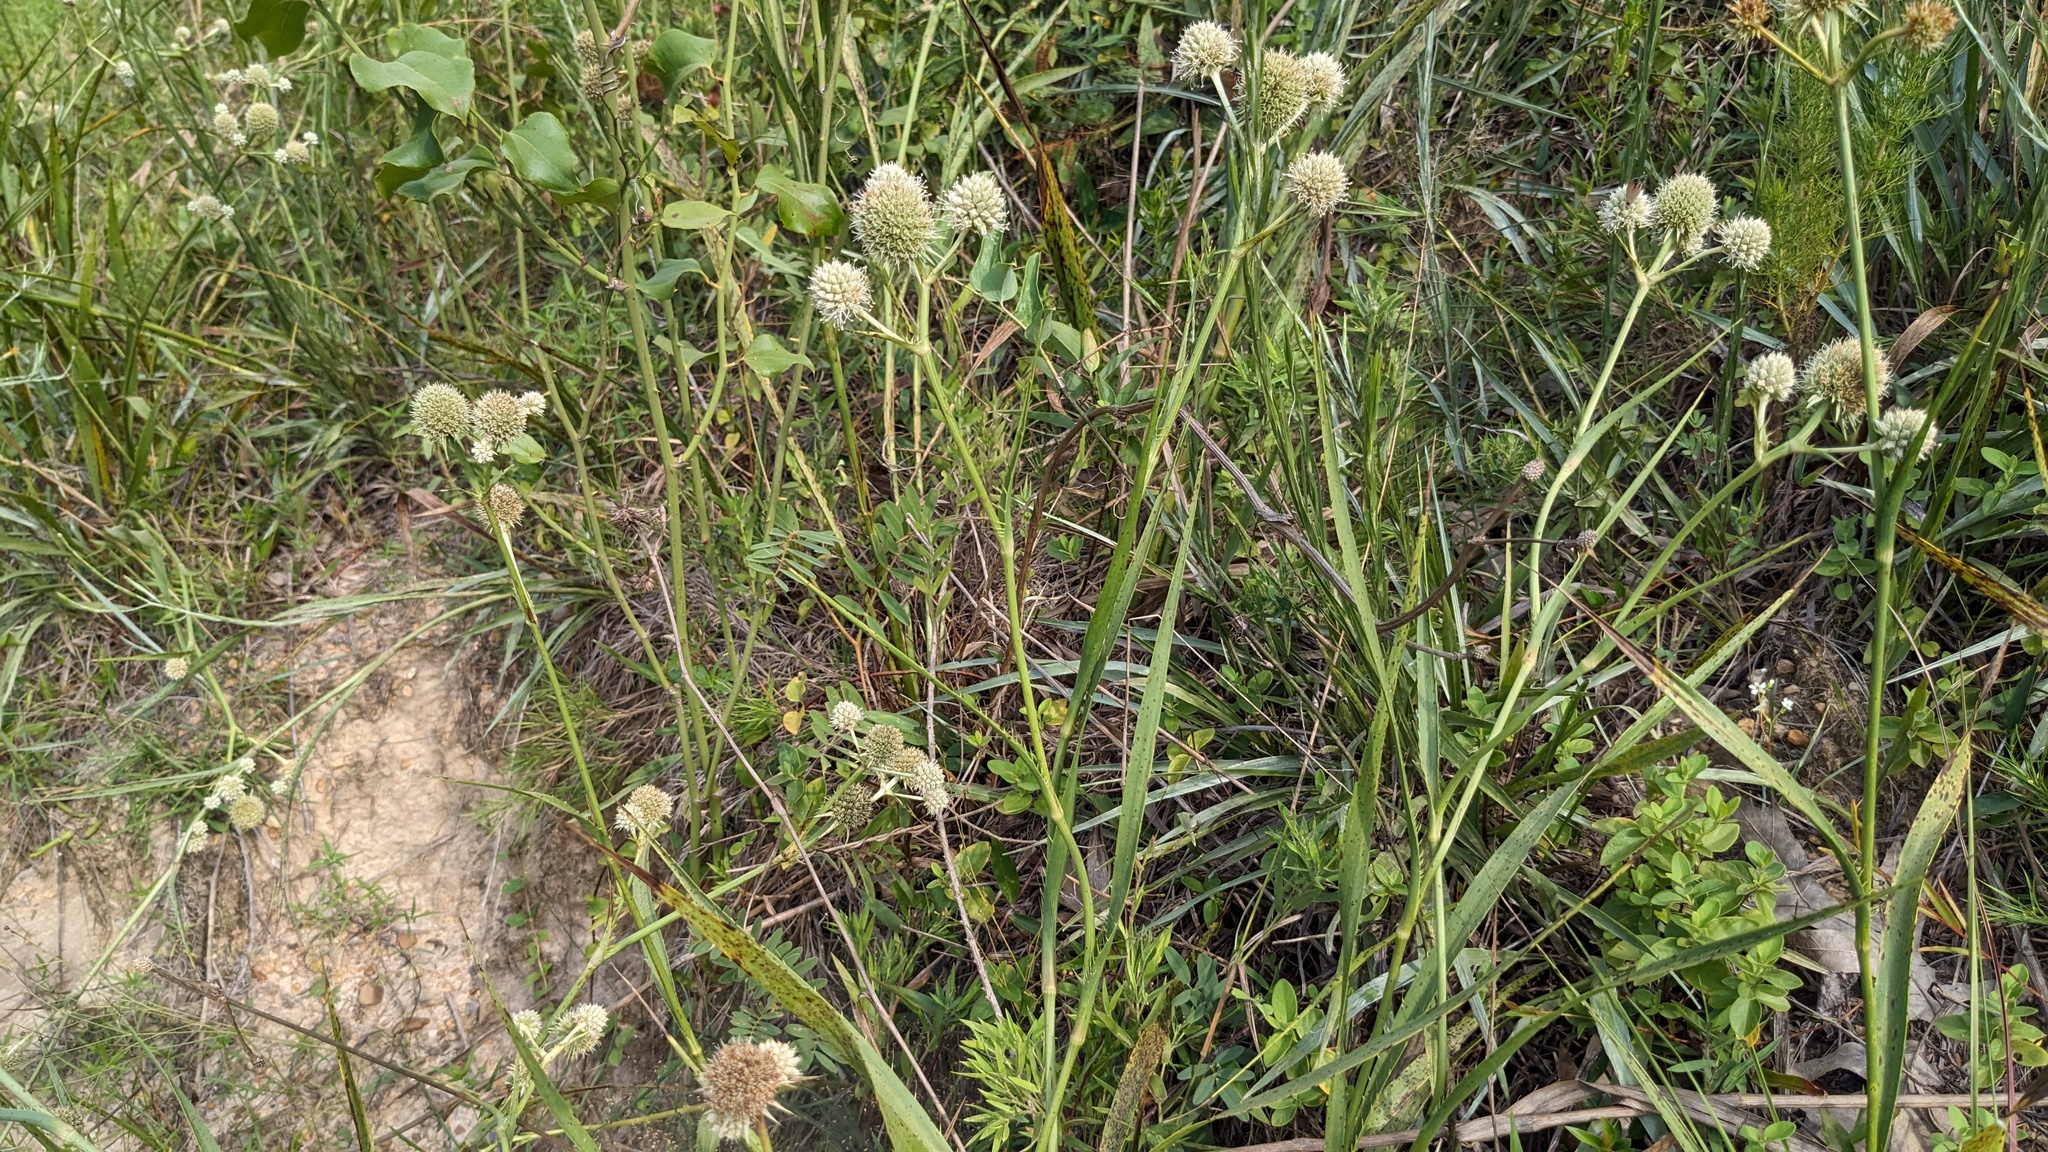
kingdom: Plantae
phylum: Tracheophyta
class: Magnoliopsida
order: Apiales
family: Apiaceae
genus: Eryngium
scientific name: Eryngium yuccifolium
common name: Button eryngo
